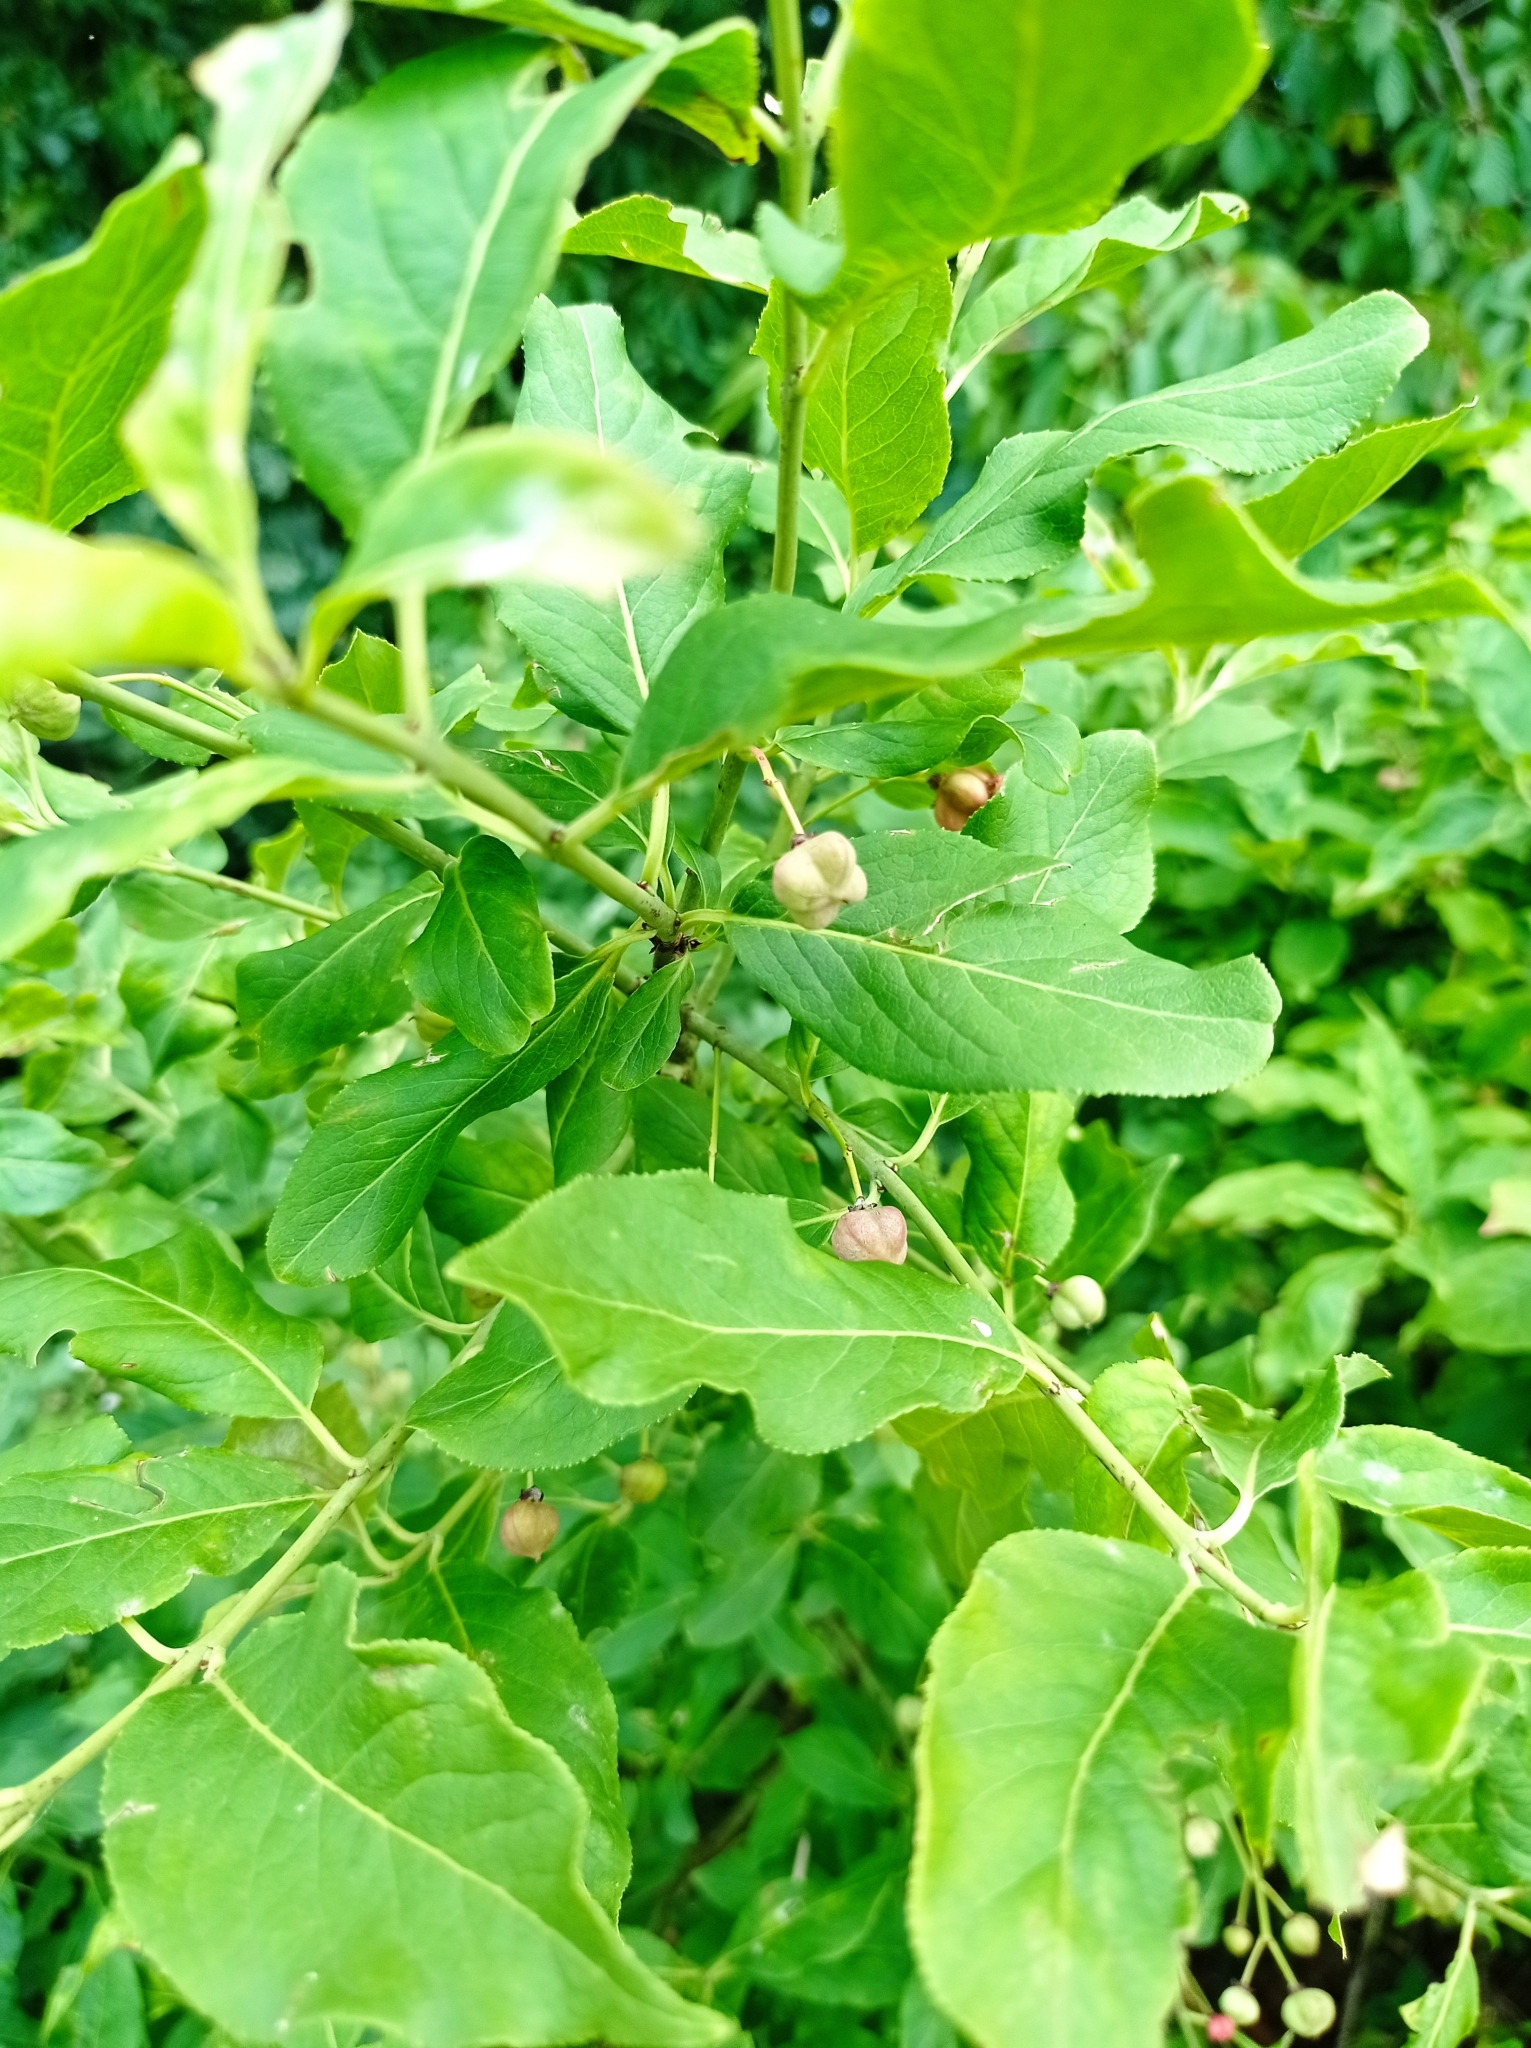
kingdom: Plantae
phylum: Tracheophyta
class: Magnoliopsida
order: Celastrales
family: Celastraceae
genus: Euonymus
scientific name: Euonymus europaeus
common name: Spindle
